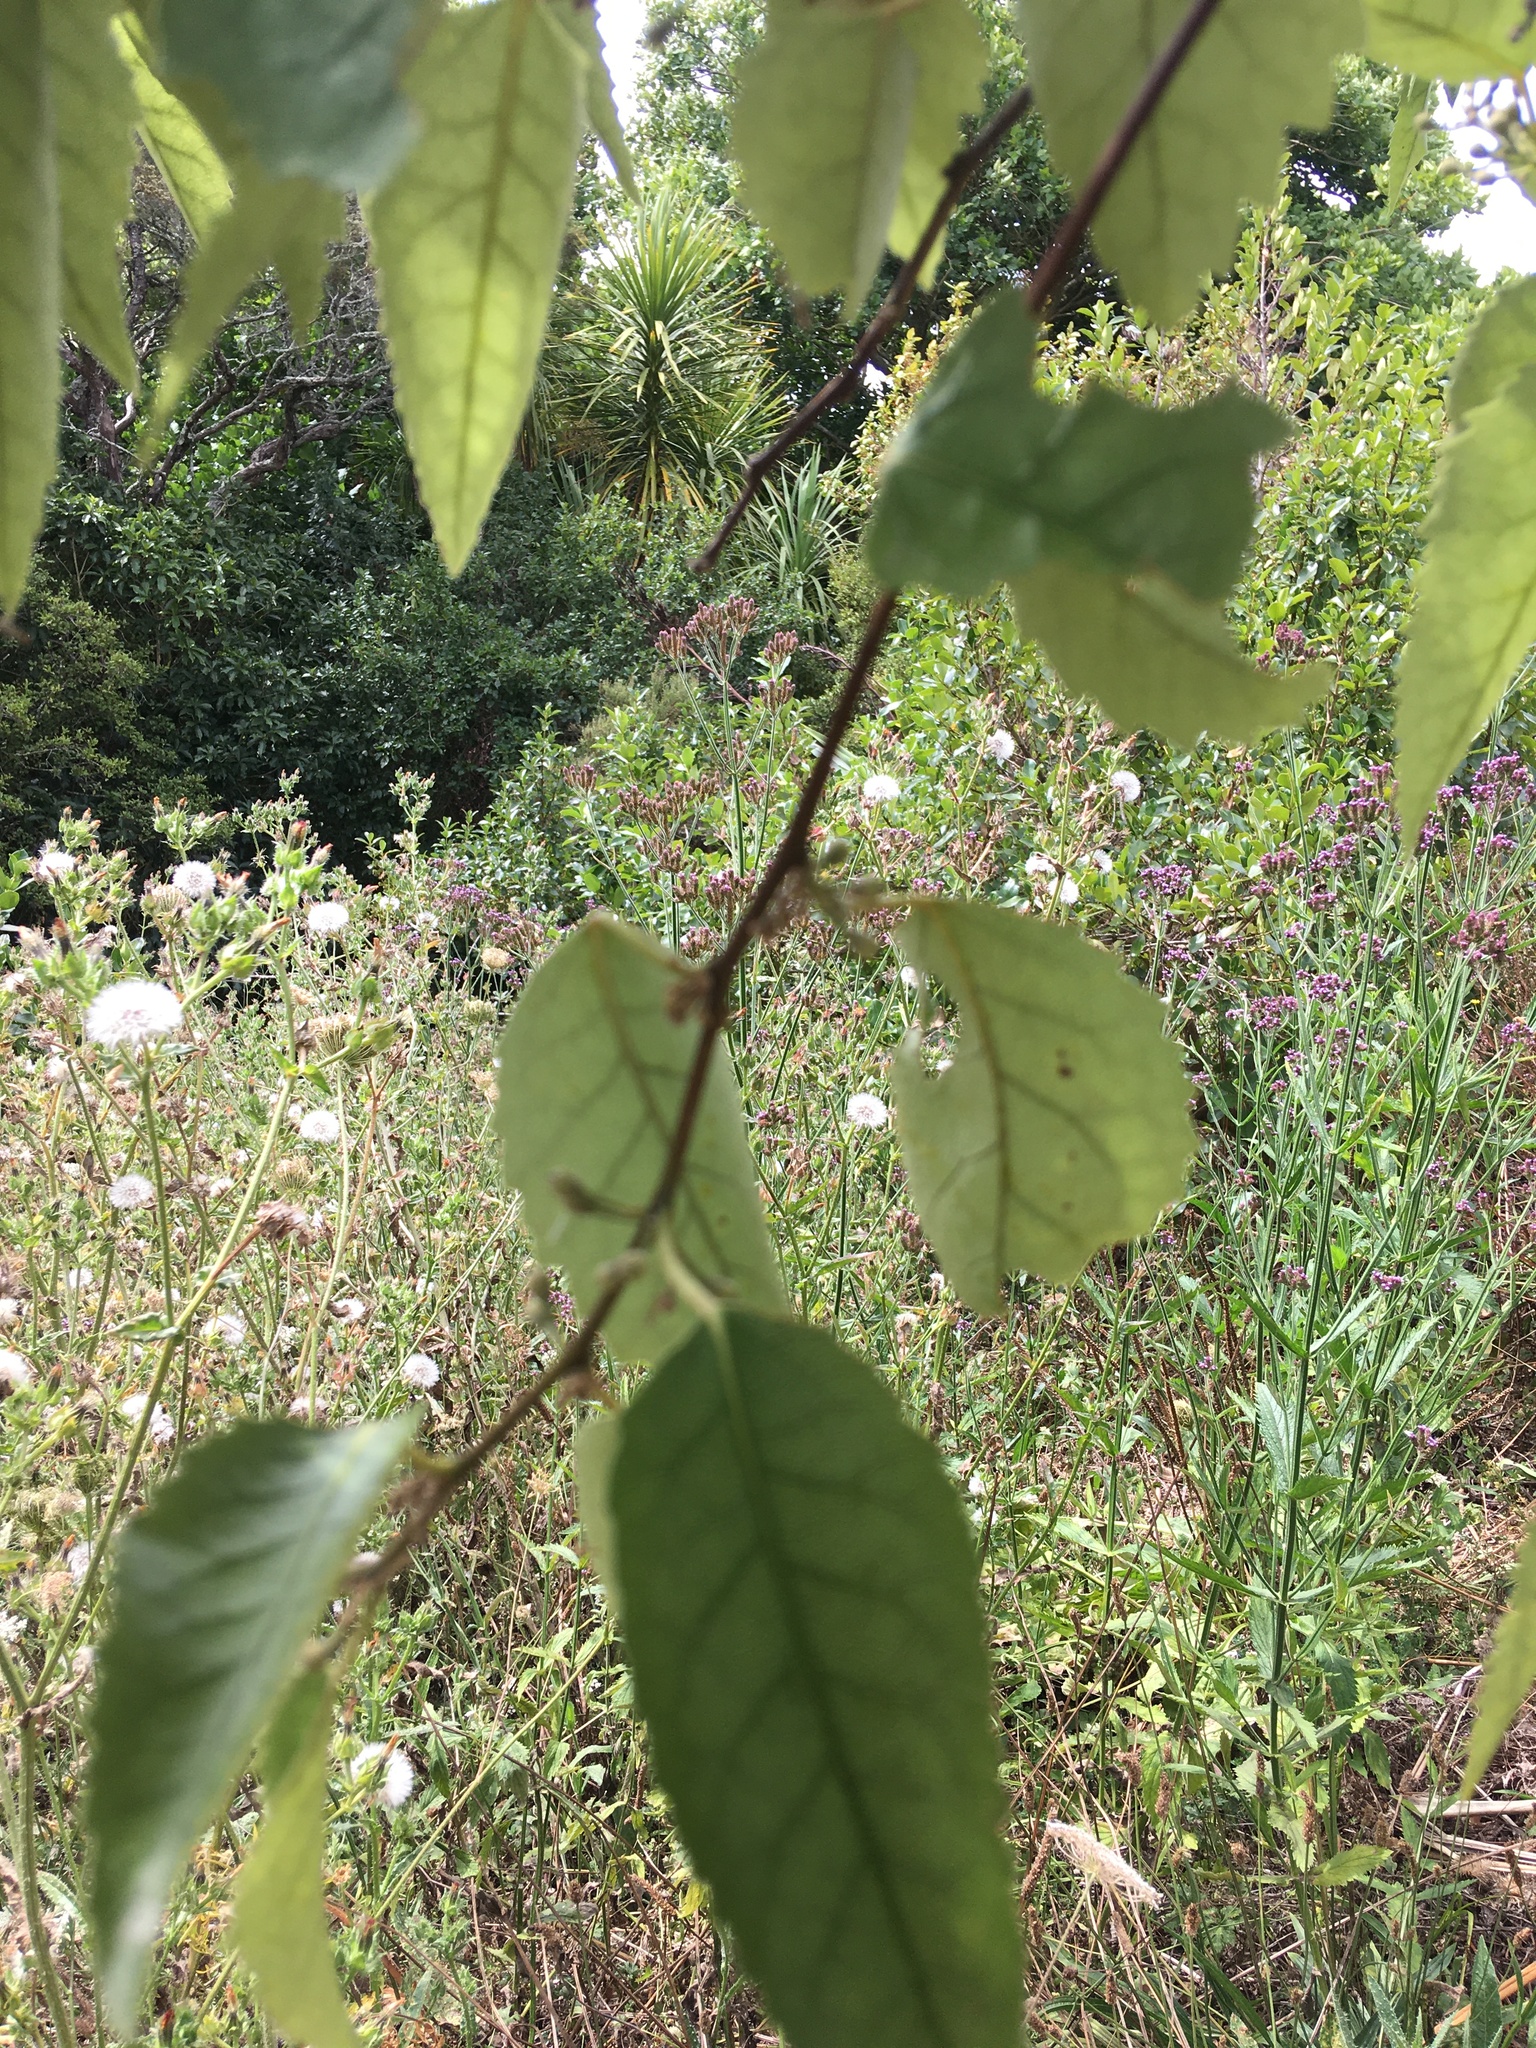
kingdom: Plantae
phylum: Tracheophyta
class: Magnoliopsida
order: Malvales
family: Malvaceae
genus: Hoheria
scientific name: Hoheria populnea
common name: Lacebark
